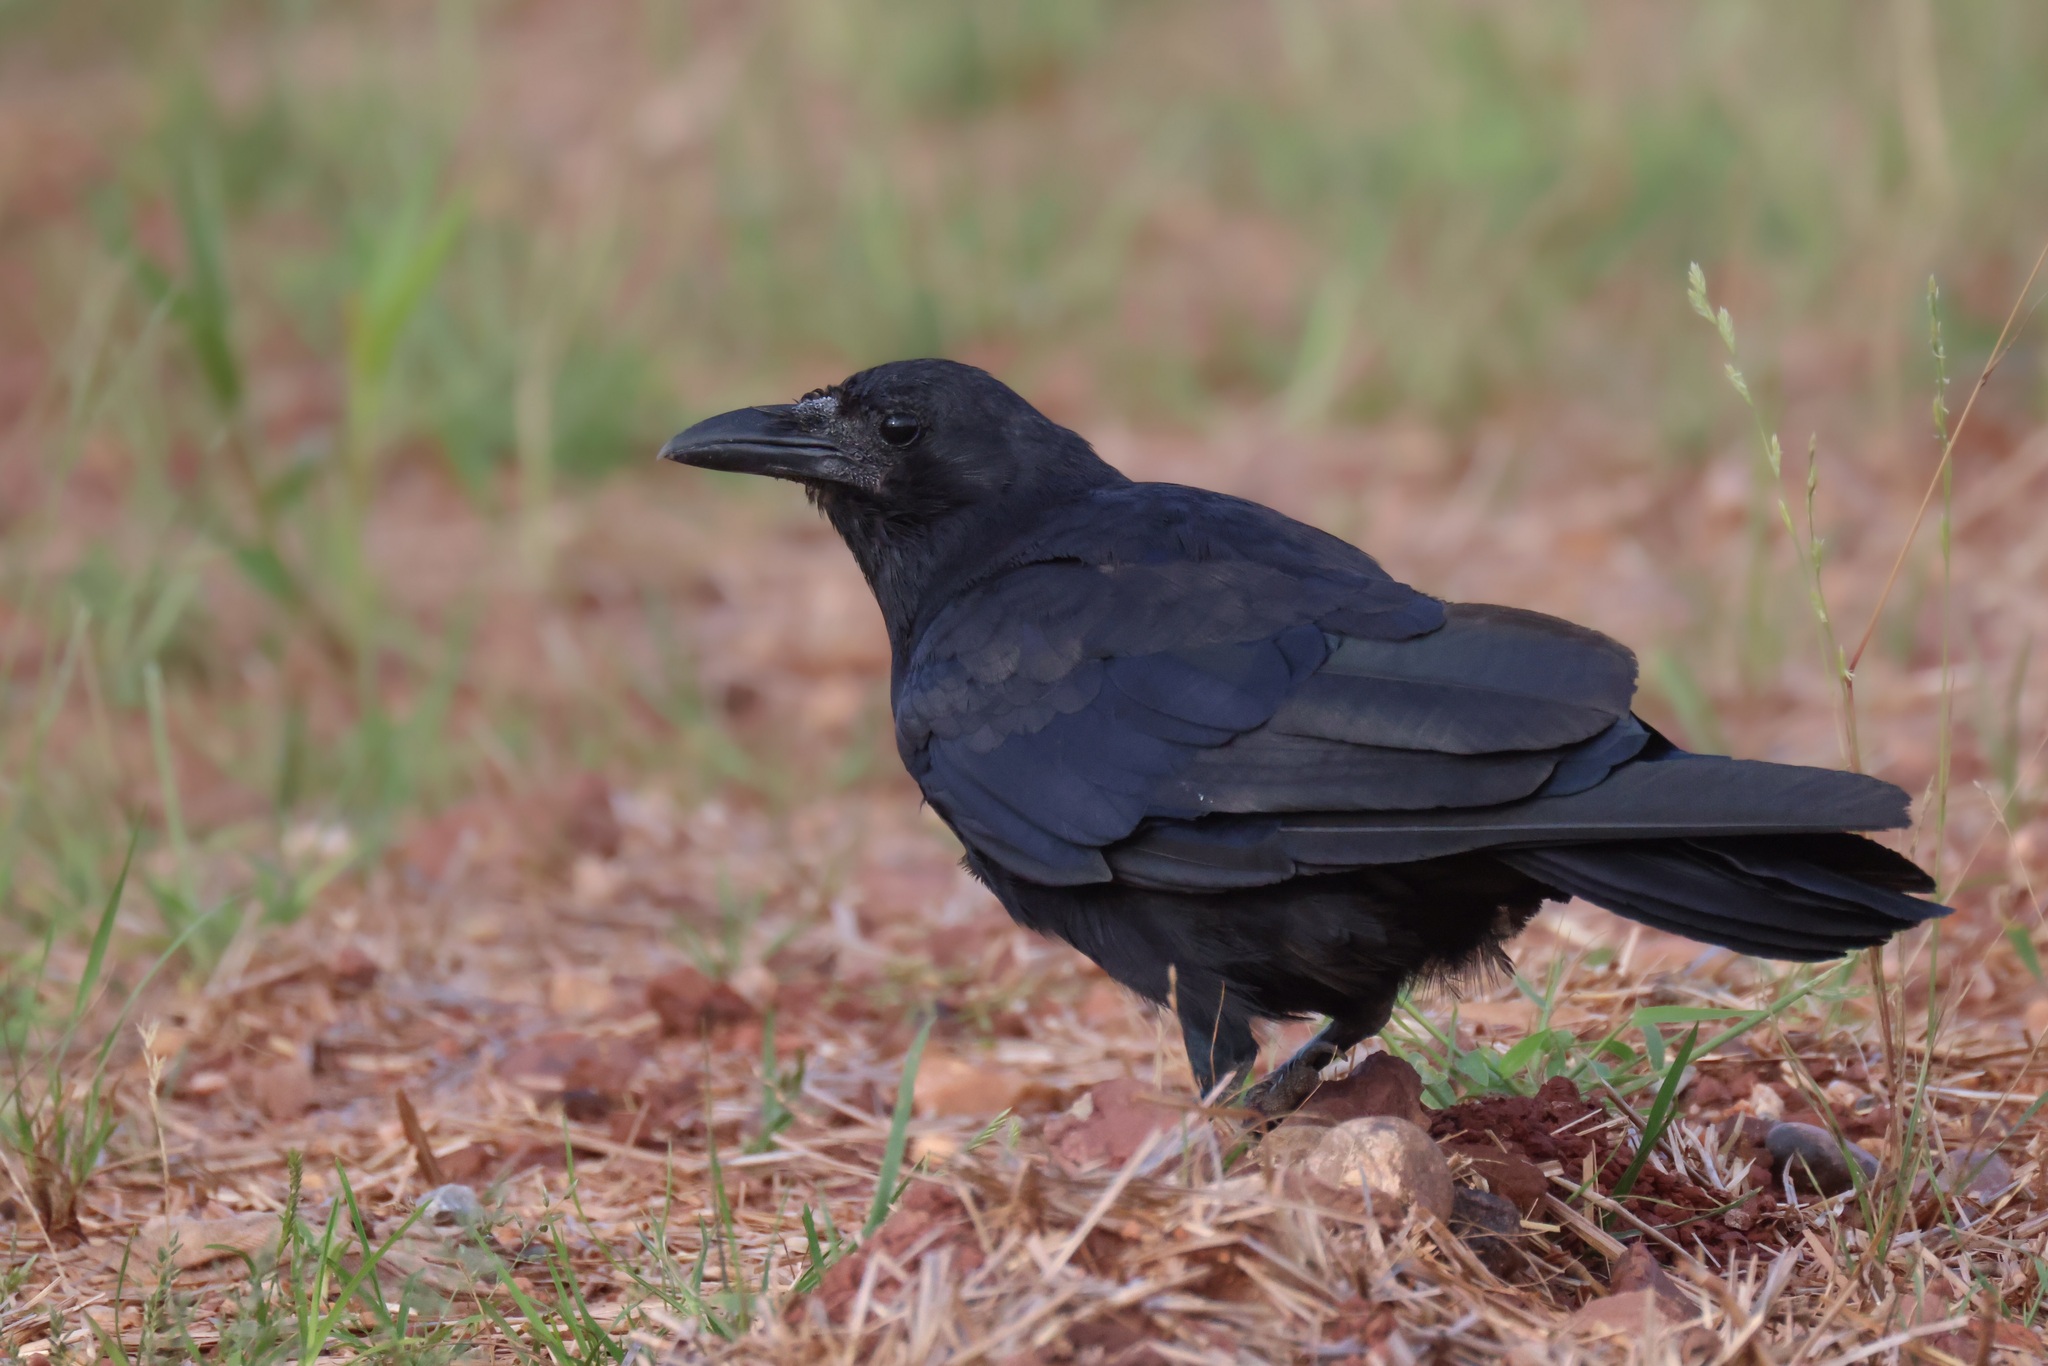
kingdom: Animalia
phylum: Chordata
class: Aves
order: Passeriformes
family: Corvidae
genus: Corvus
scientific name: Corvus ossifragus
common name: Fish crow
